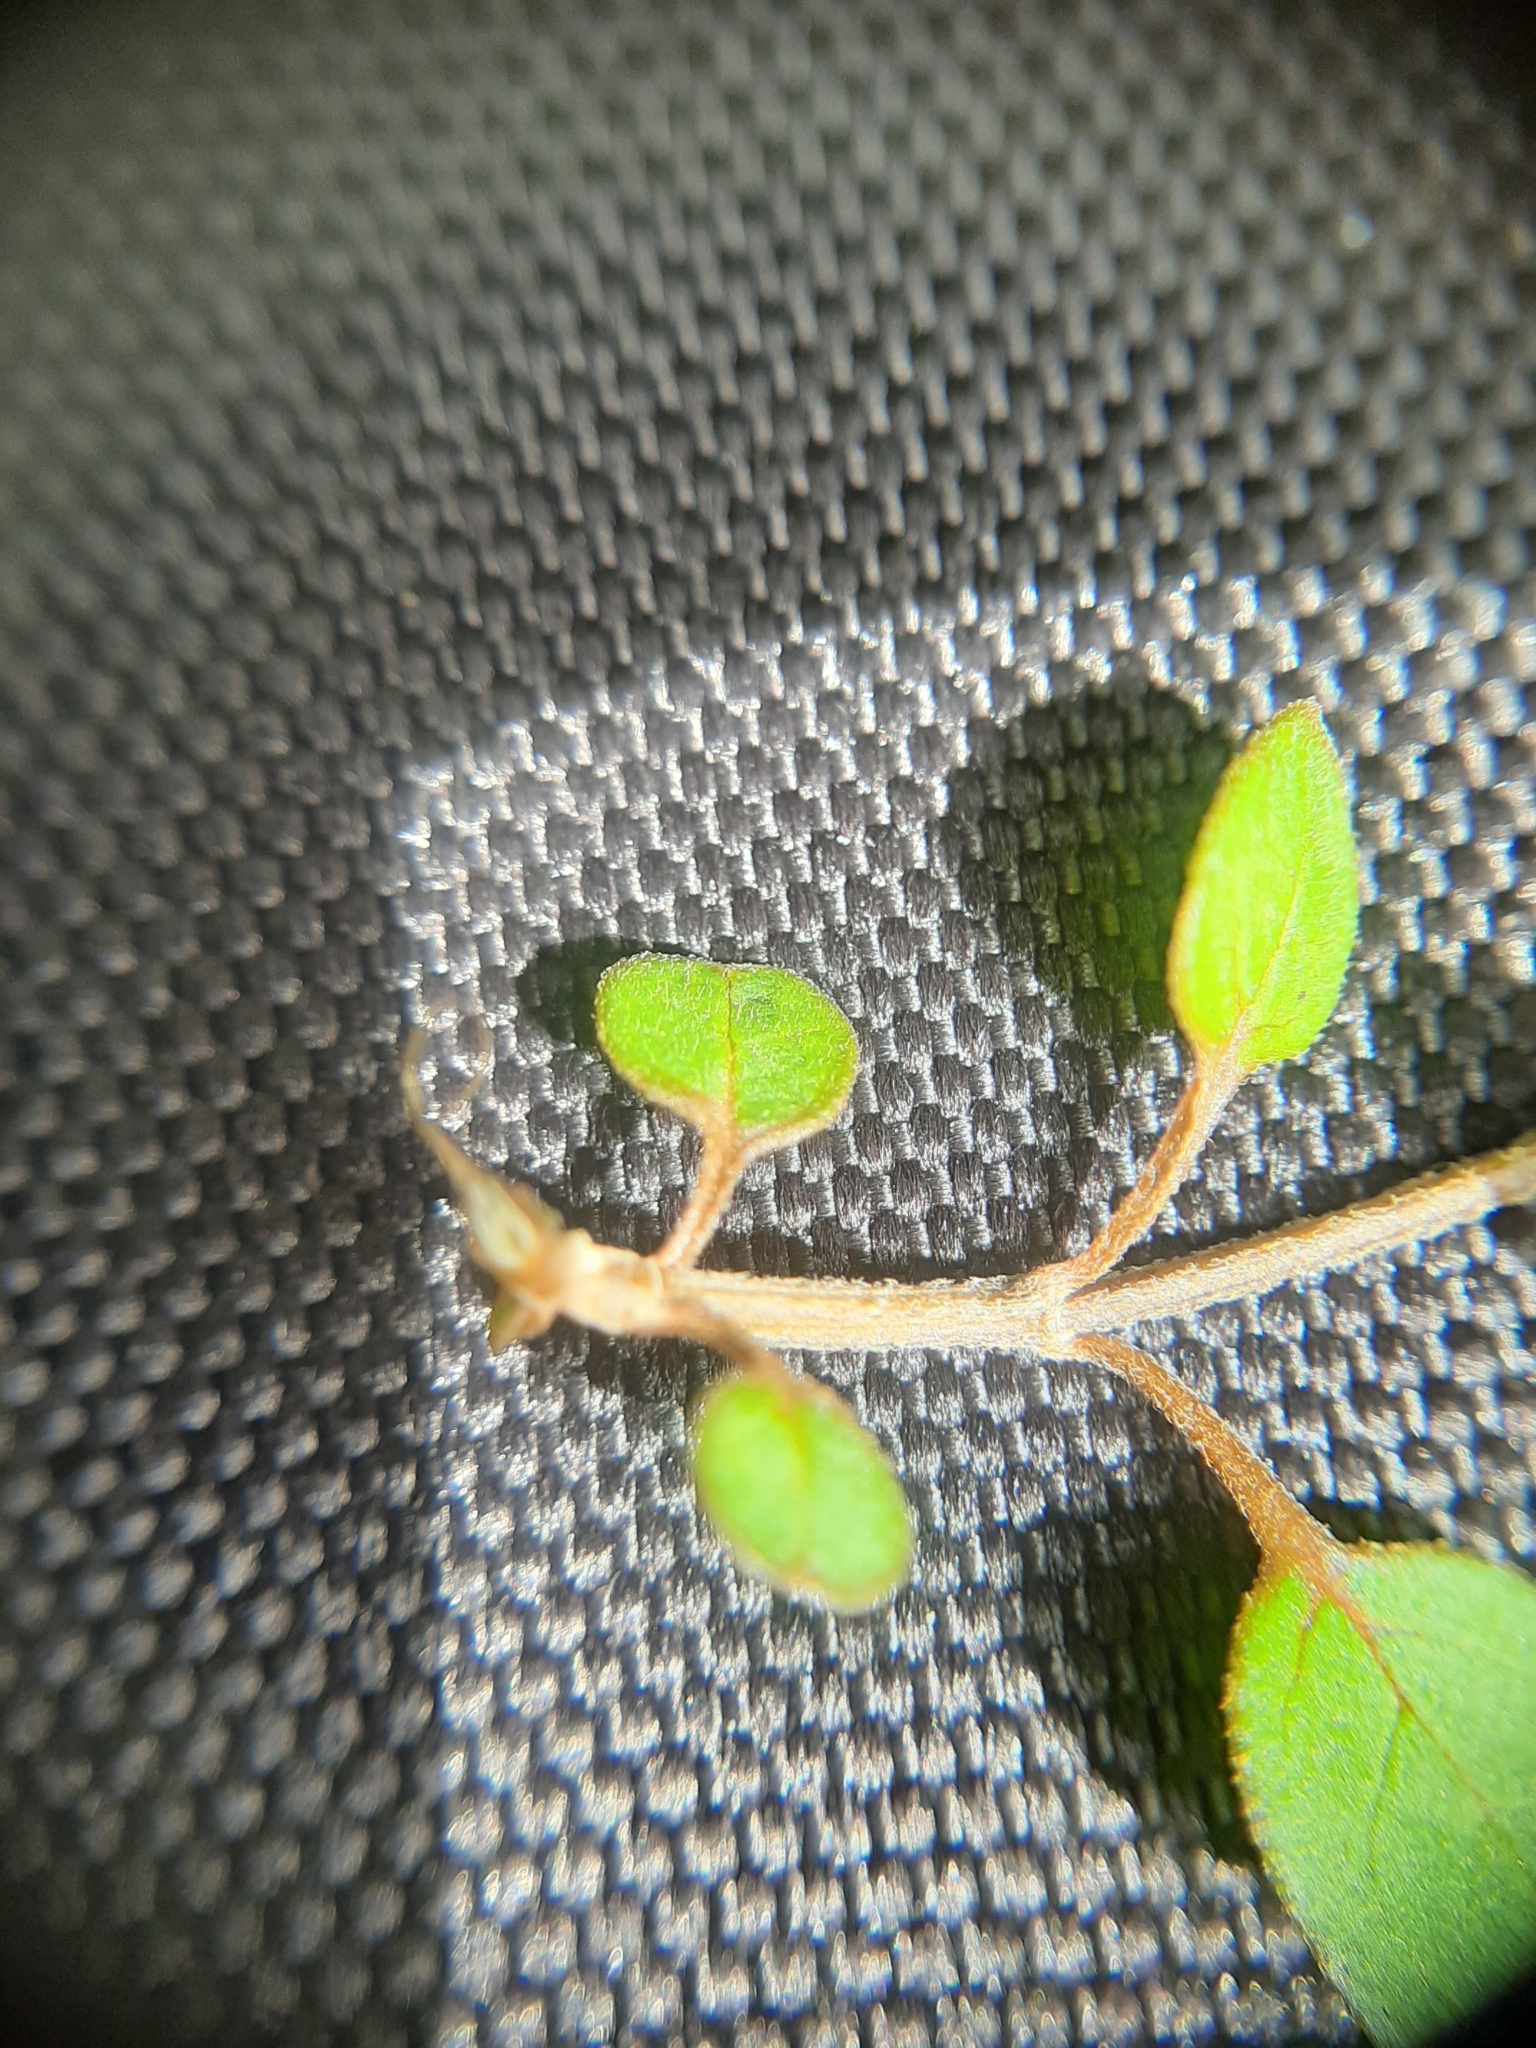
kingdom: Plantae
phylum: Tracheophyta
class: Magnoliopsida
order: Lamiales
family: Lamiaceae
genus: Teucrium
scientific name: Teucrium parvifolium
